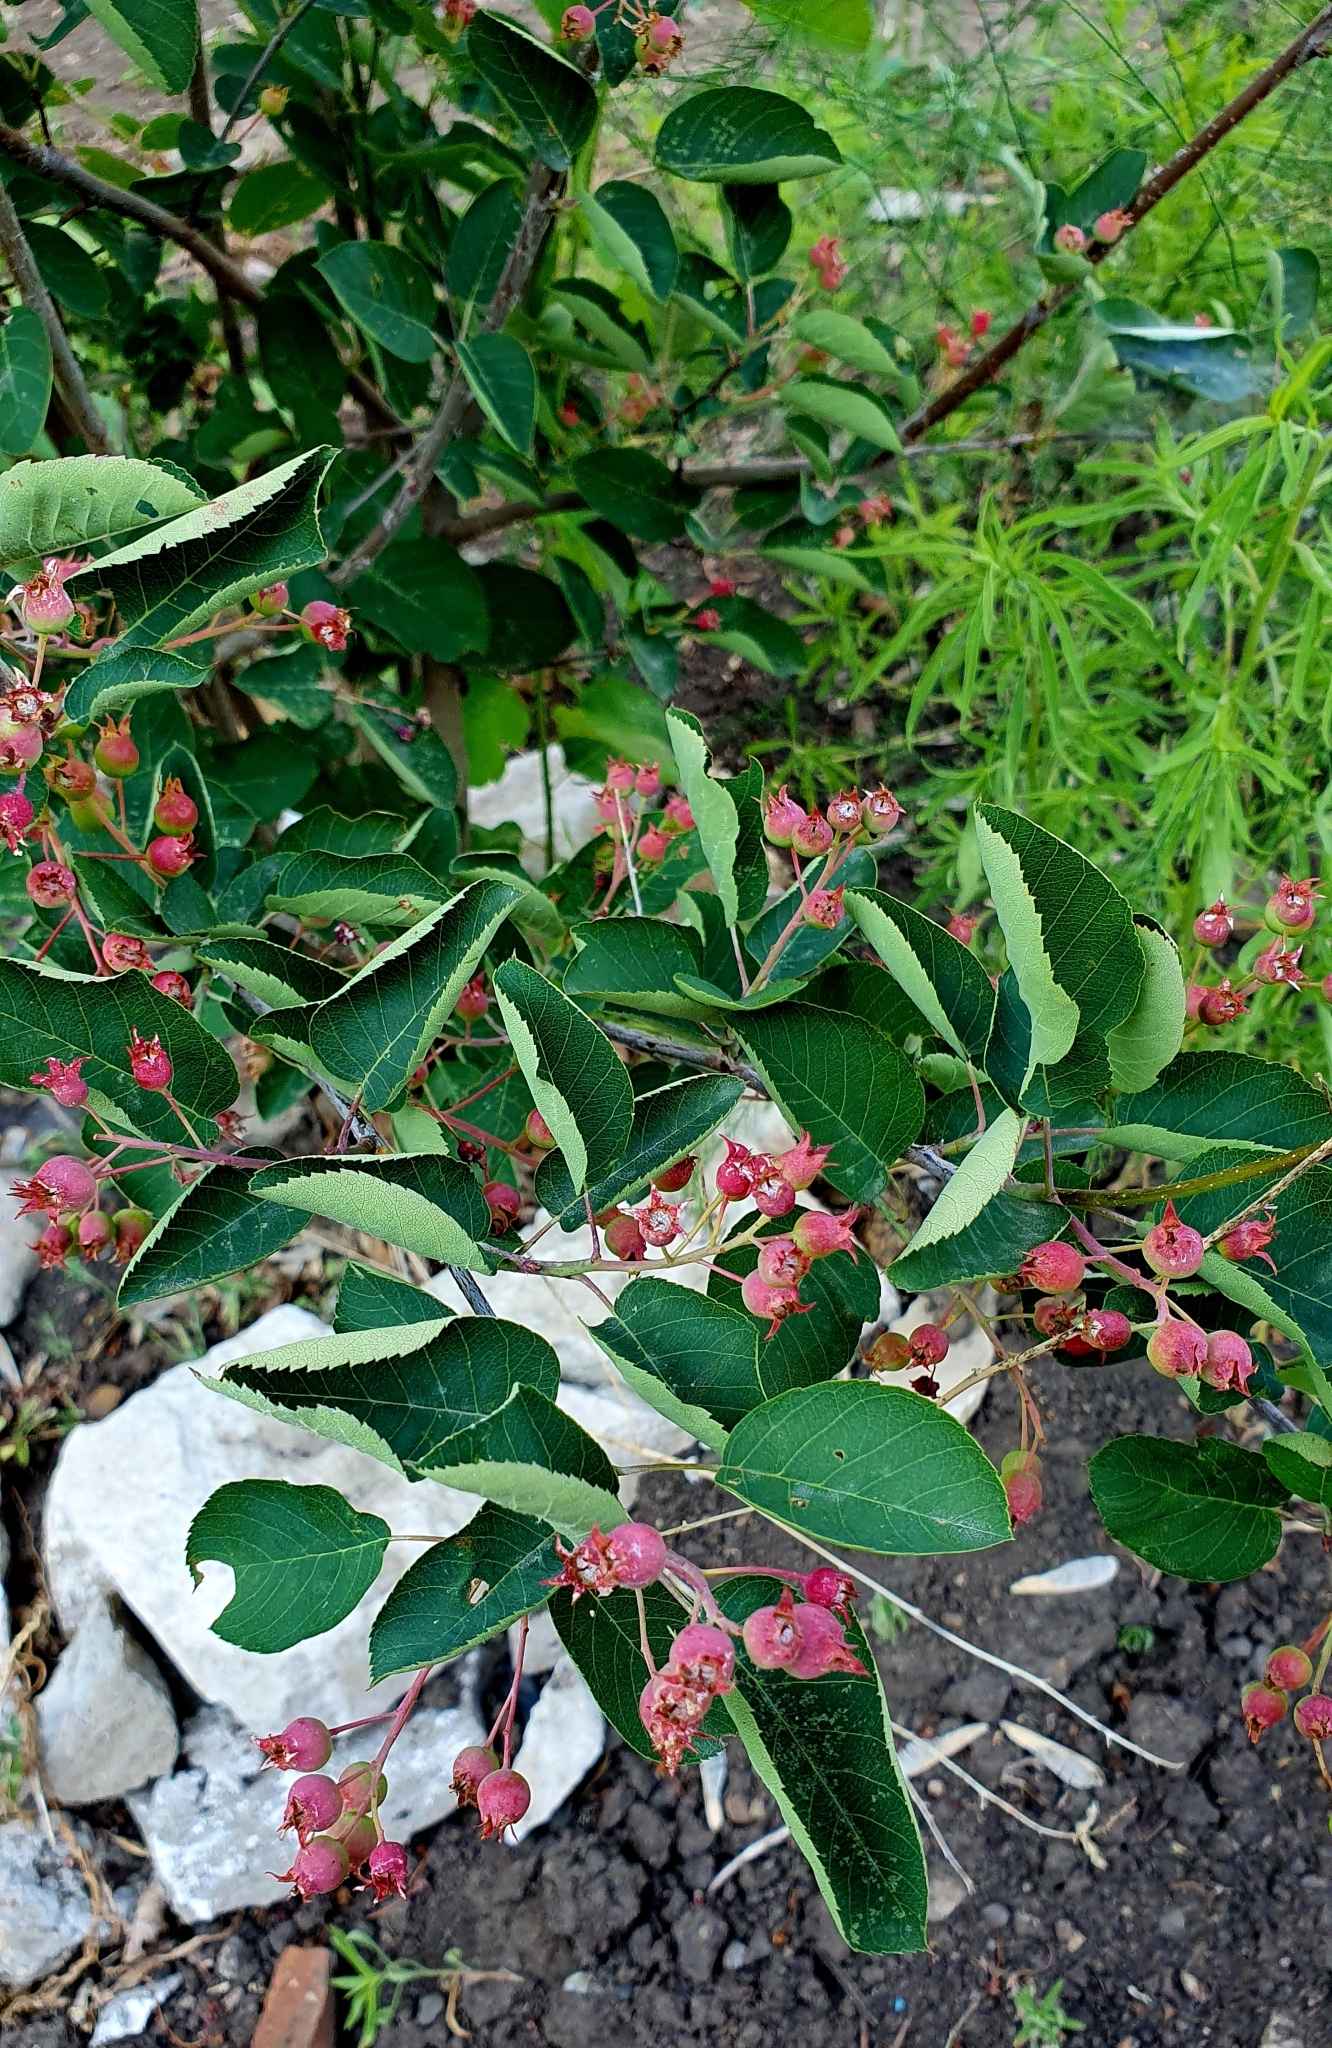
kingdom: Plantae
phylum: Tracheophyta
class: Magnoliopsida
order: Rosales
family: Rosaceae
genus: Amelanchier
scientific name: Amelanchier
